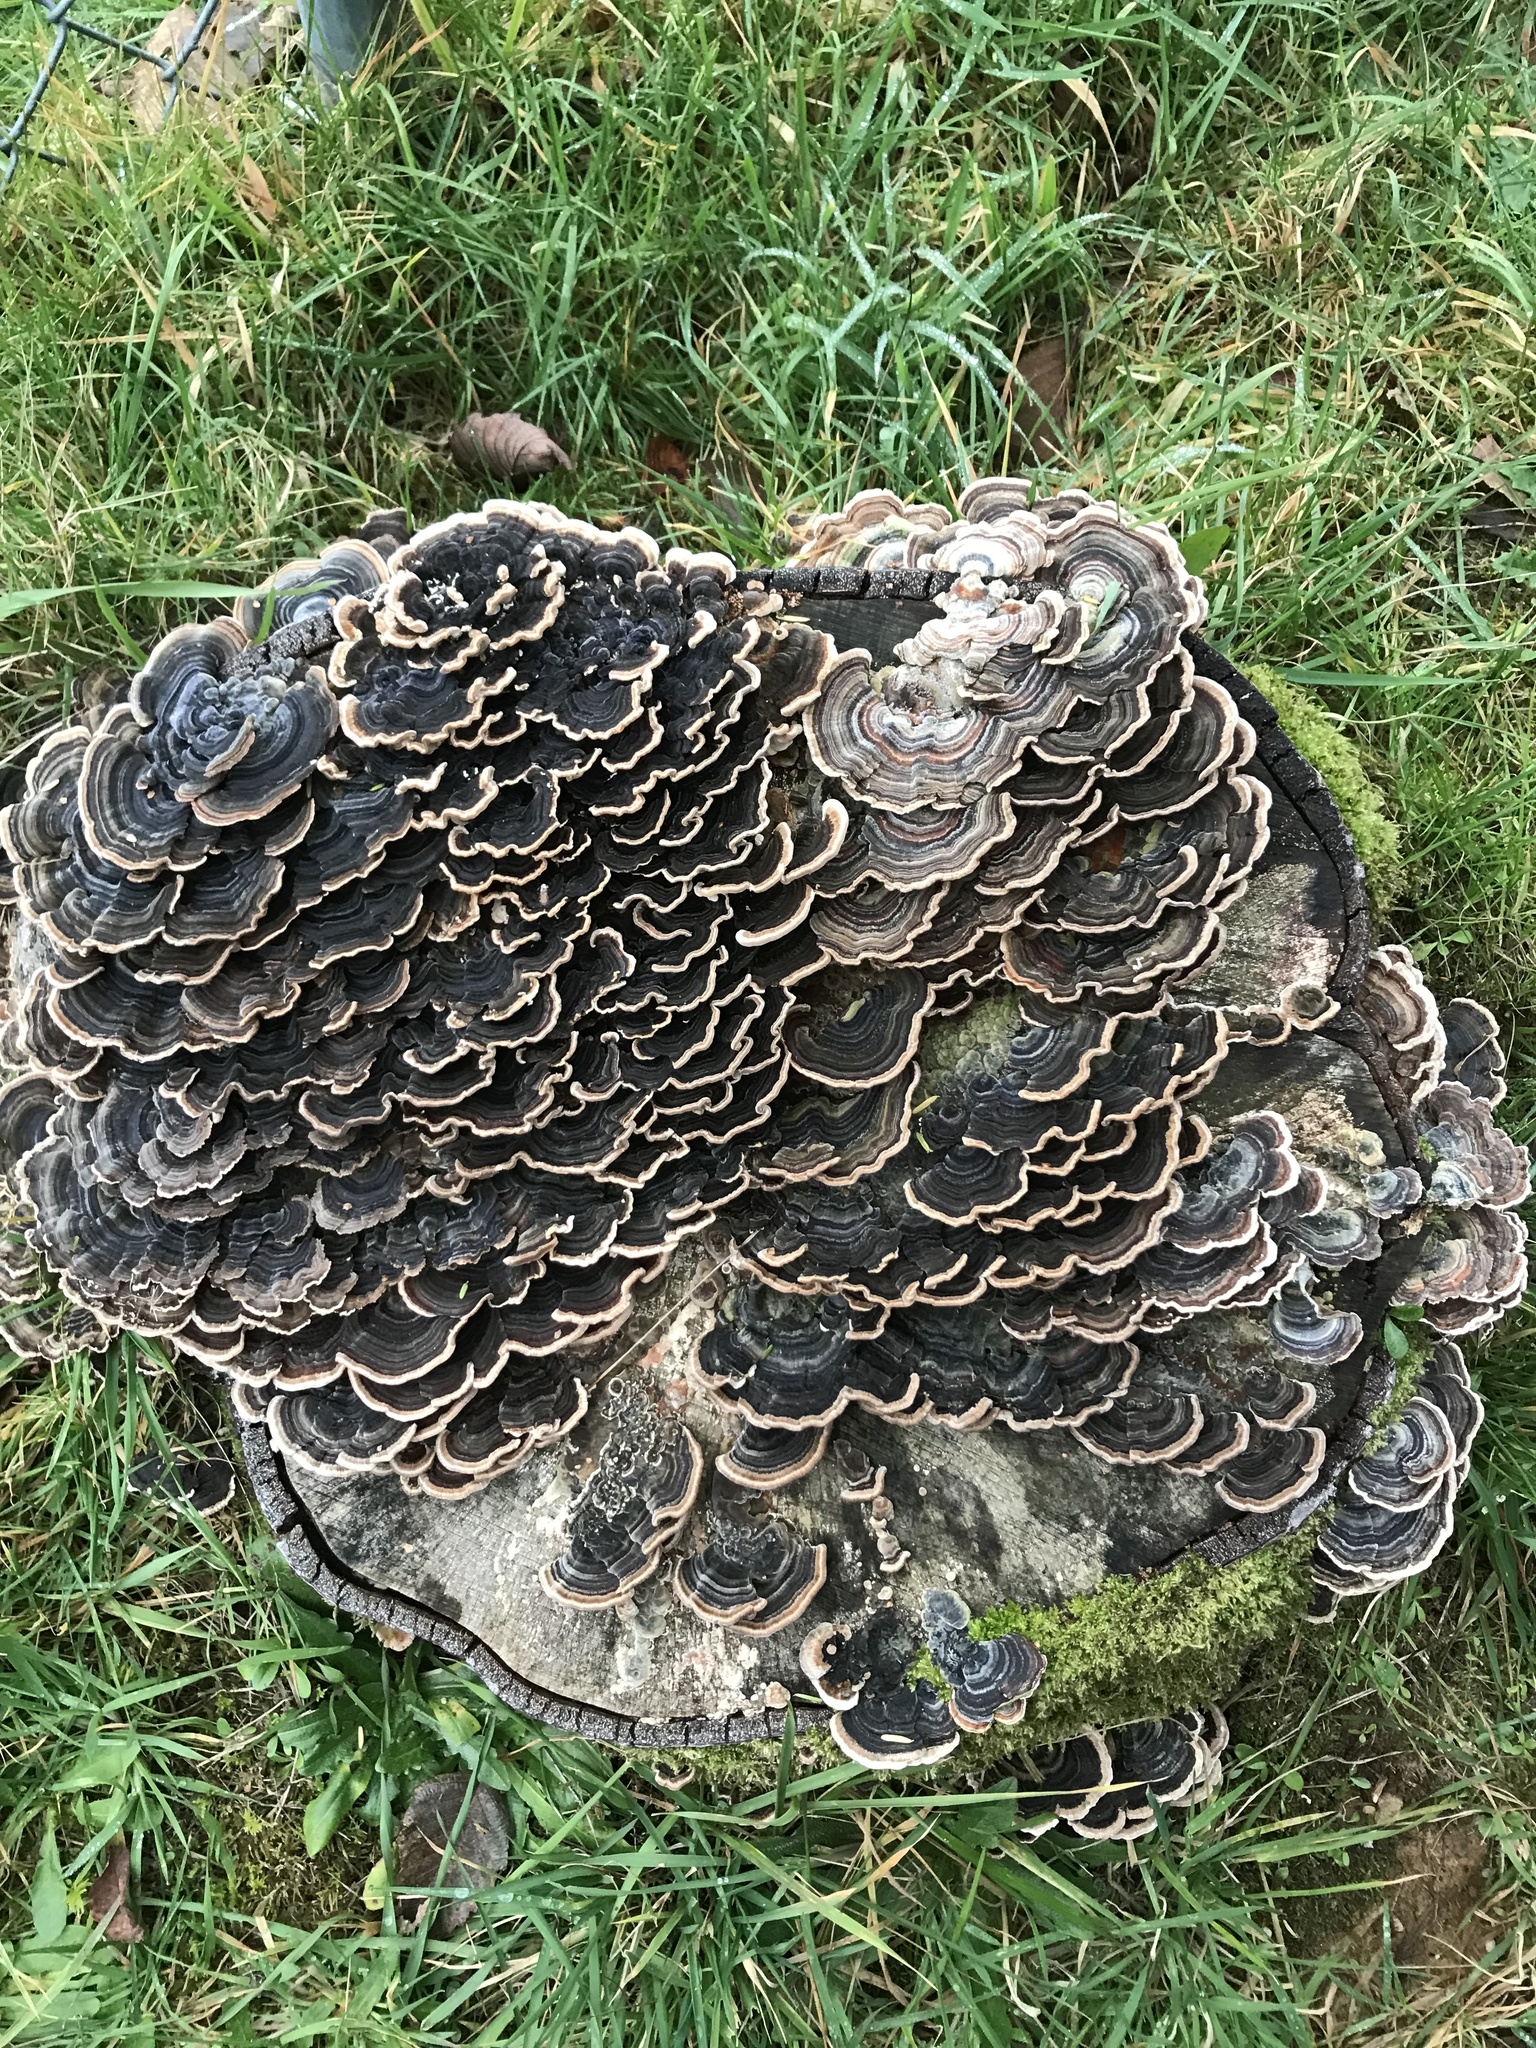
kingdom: Fungi
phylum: Basidiomycota
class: Agaricomycetes
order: Polyporales
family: Polyporaceae
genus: Trametes
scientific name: Trametes versicolor
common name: Turkeytail
